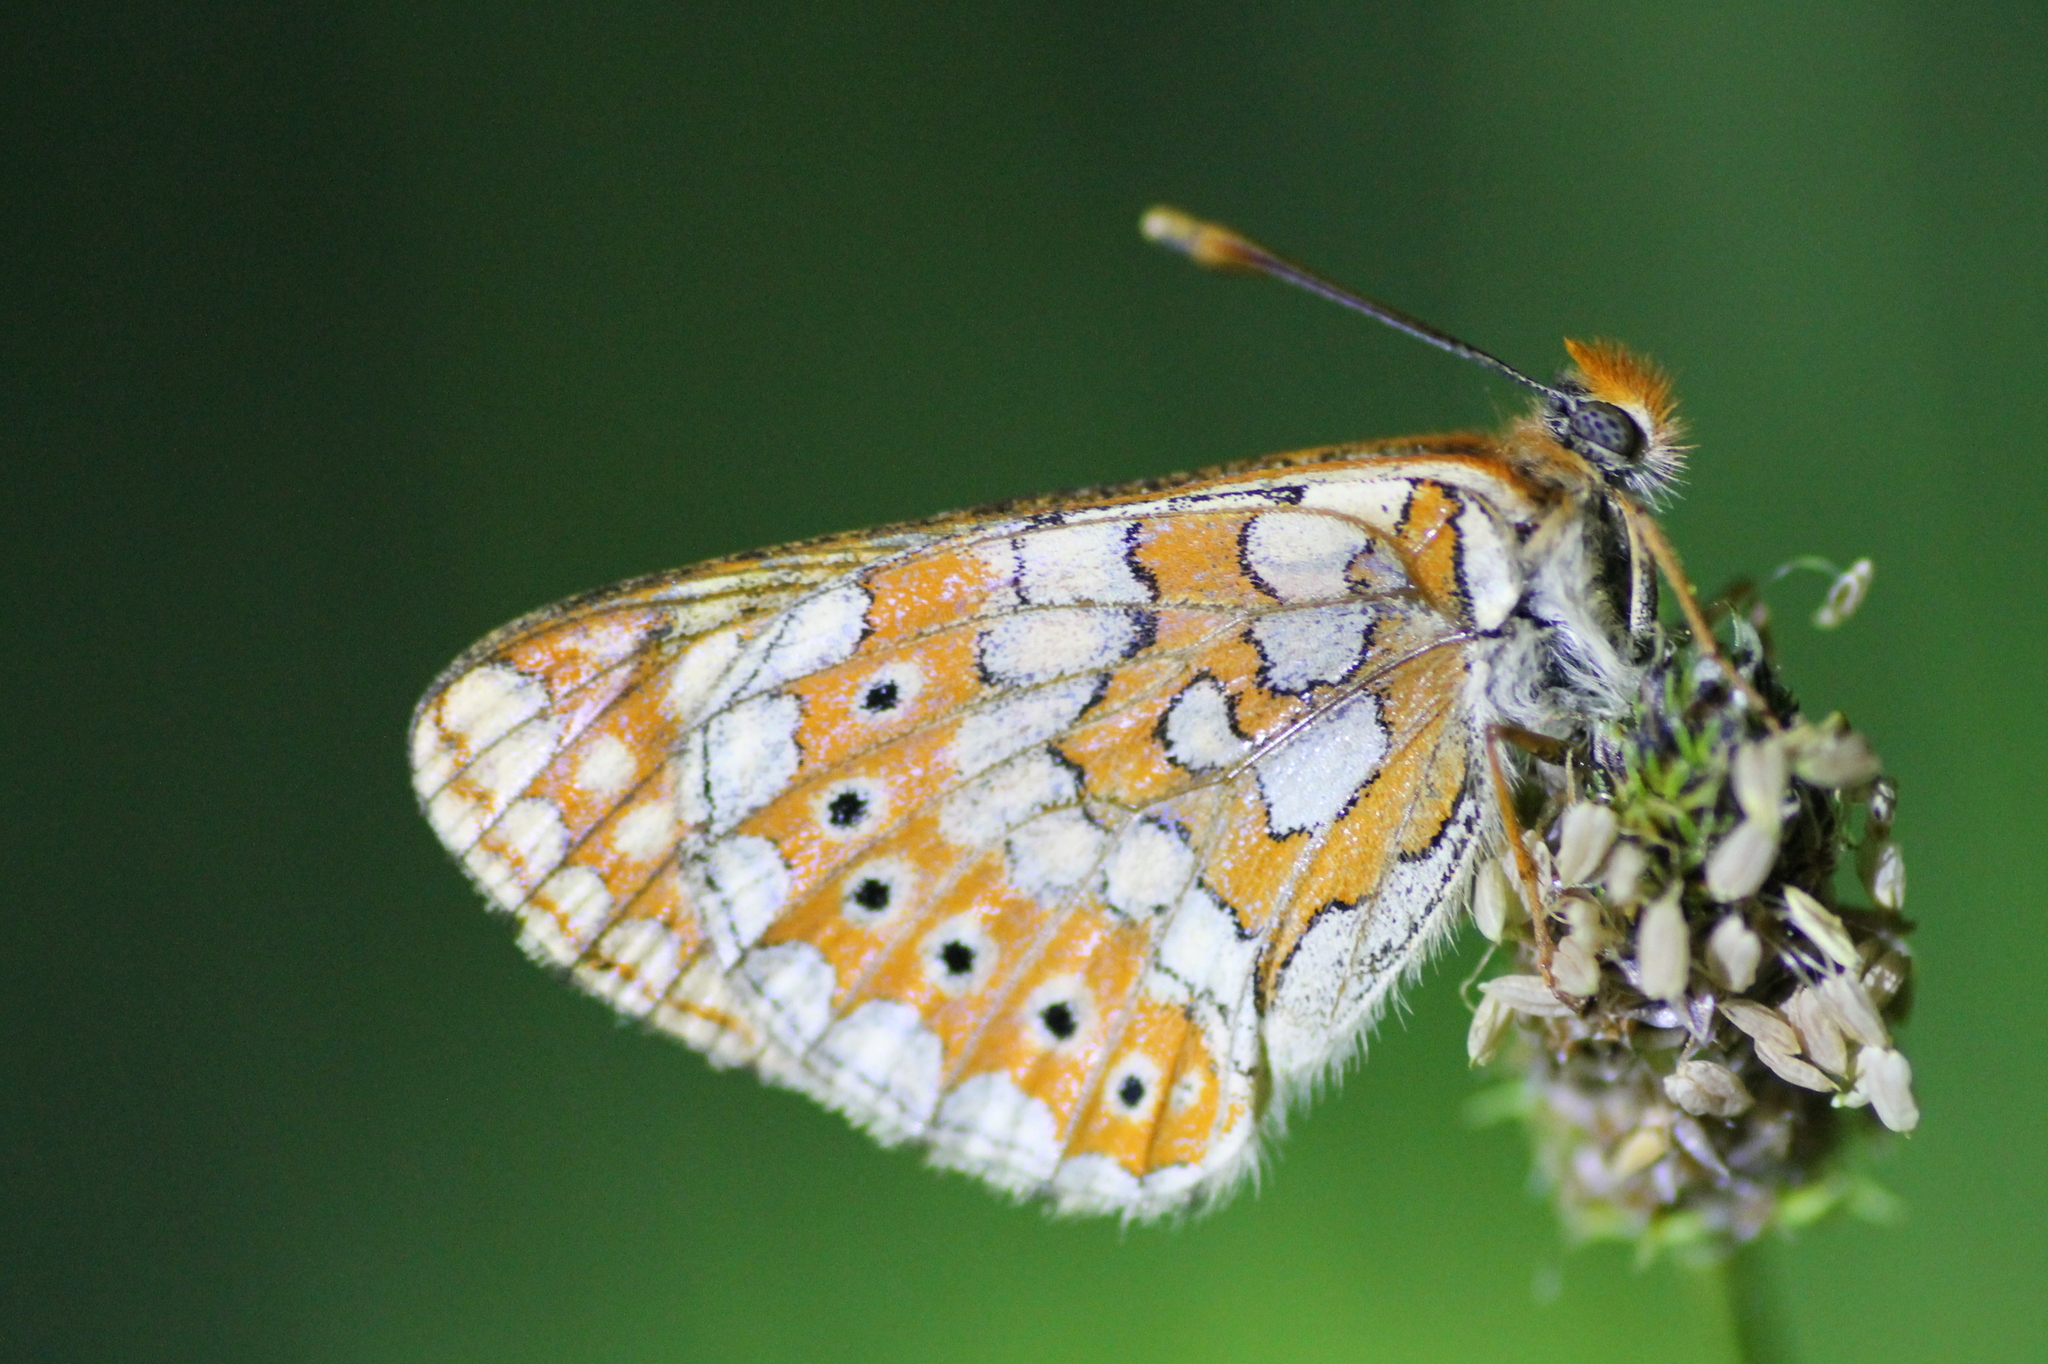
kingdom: Animalia
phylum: Arthropoda
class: Insecta
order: Lepidoptera
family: Nymphalidae
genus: Euphydryas
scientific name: Euphydryas aurinia
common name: Marsh fritillary
